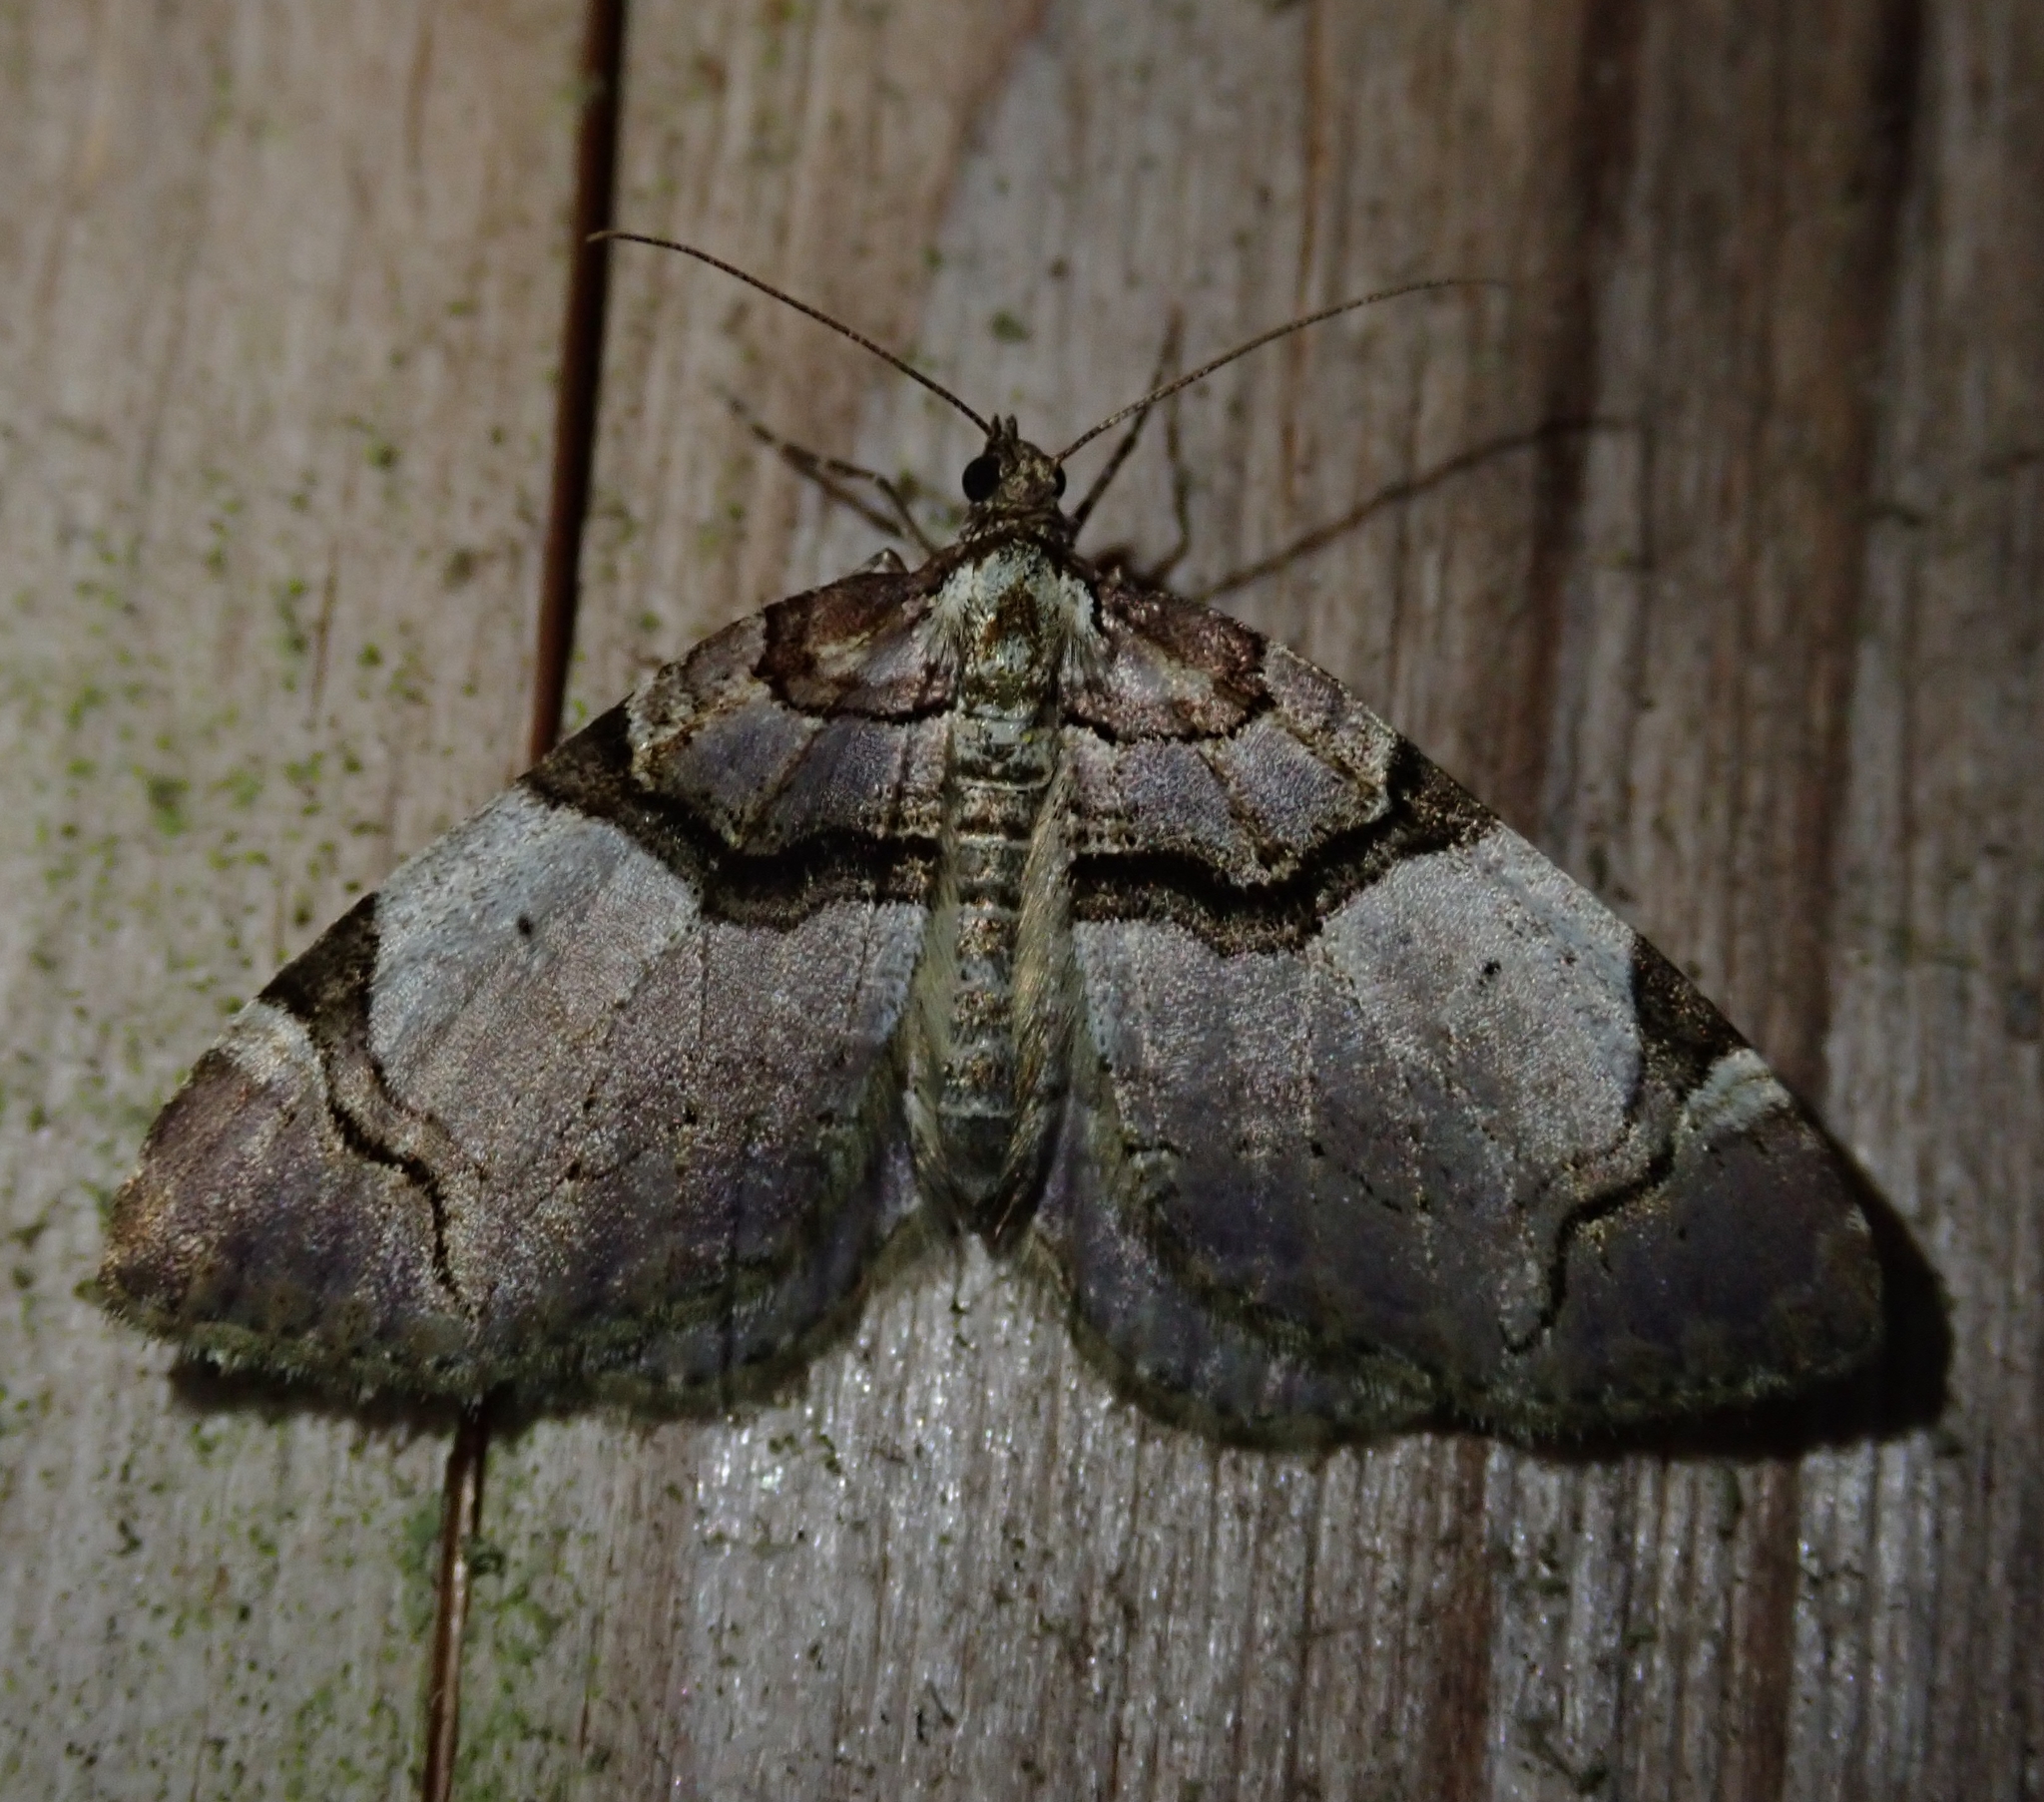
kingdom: Animalia
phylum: Arthropoda
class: Insecta
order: Lepidoptera
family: Geometridae
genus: Anticlea
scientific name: Anticlea derivata
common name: Streamer
